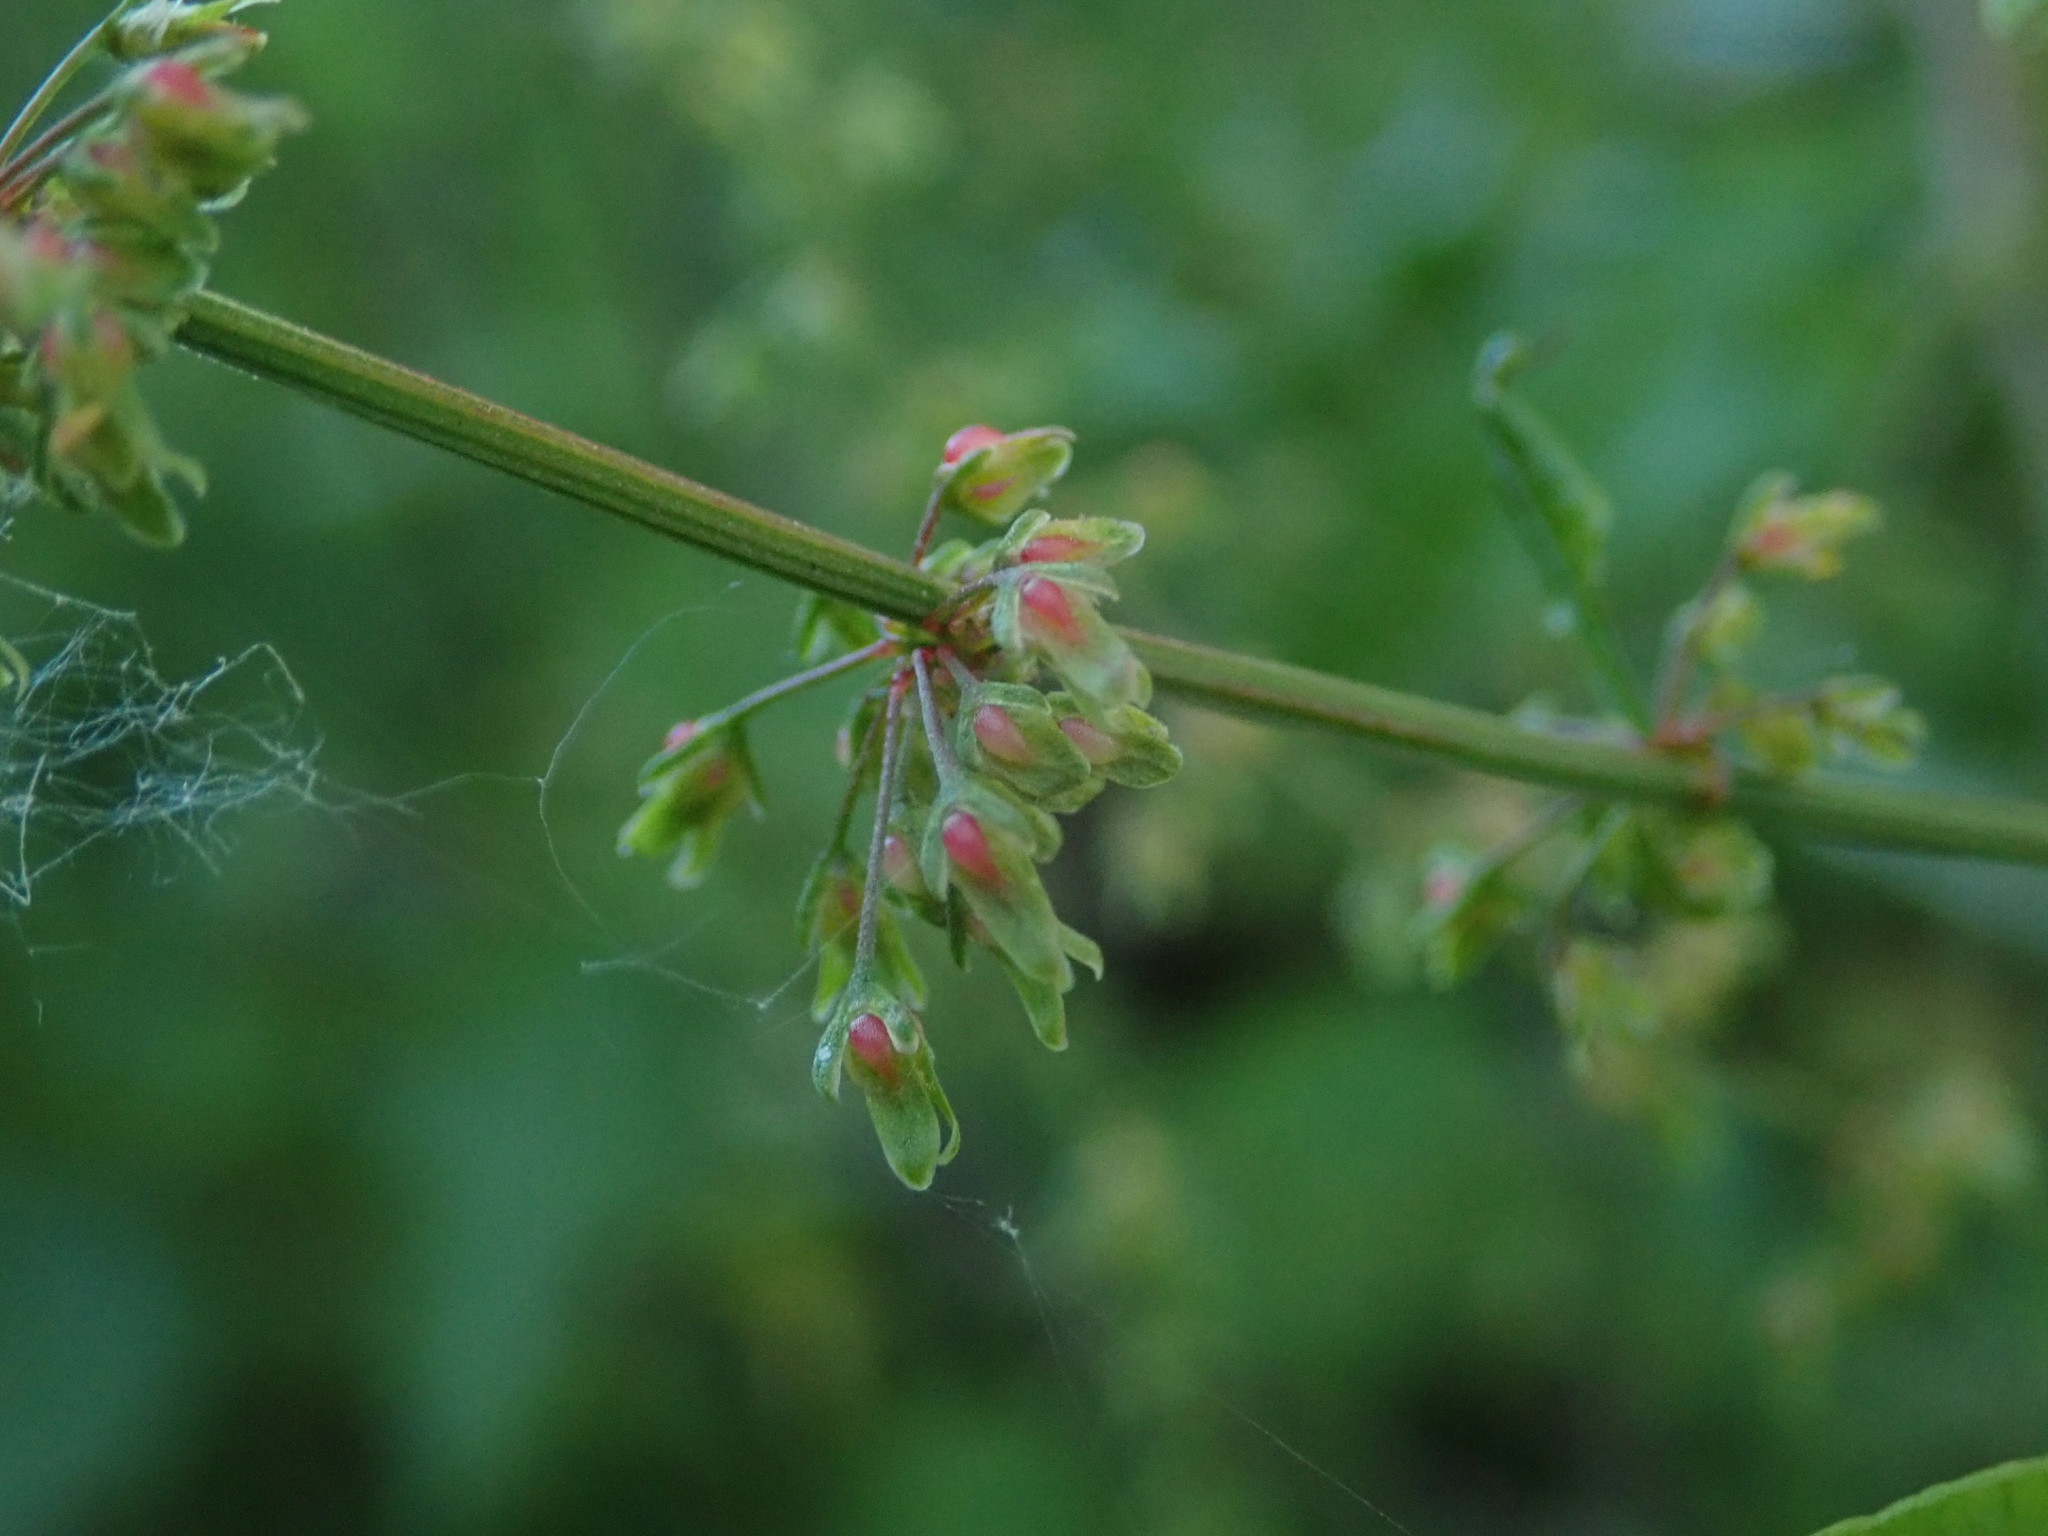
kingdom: Plantae
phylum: Tracheophyta
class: Magnoliopsida
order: Caryophyllales
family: Polygonaceae
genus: Rumex
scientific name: Rumex sanguineus
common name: Wood dock
